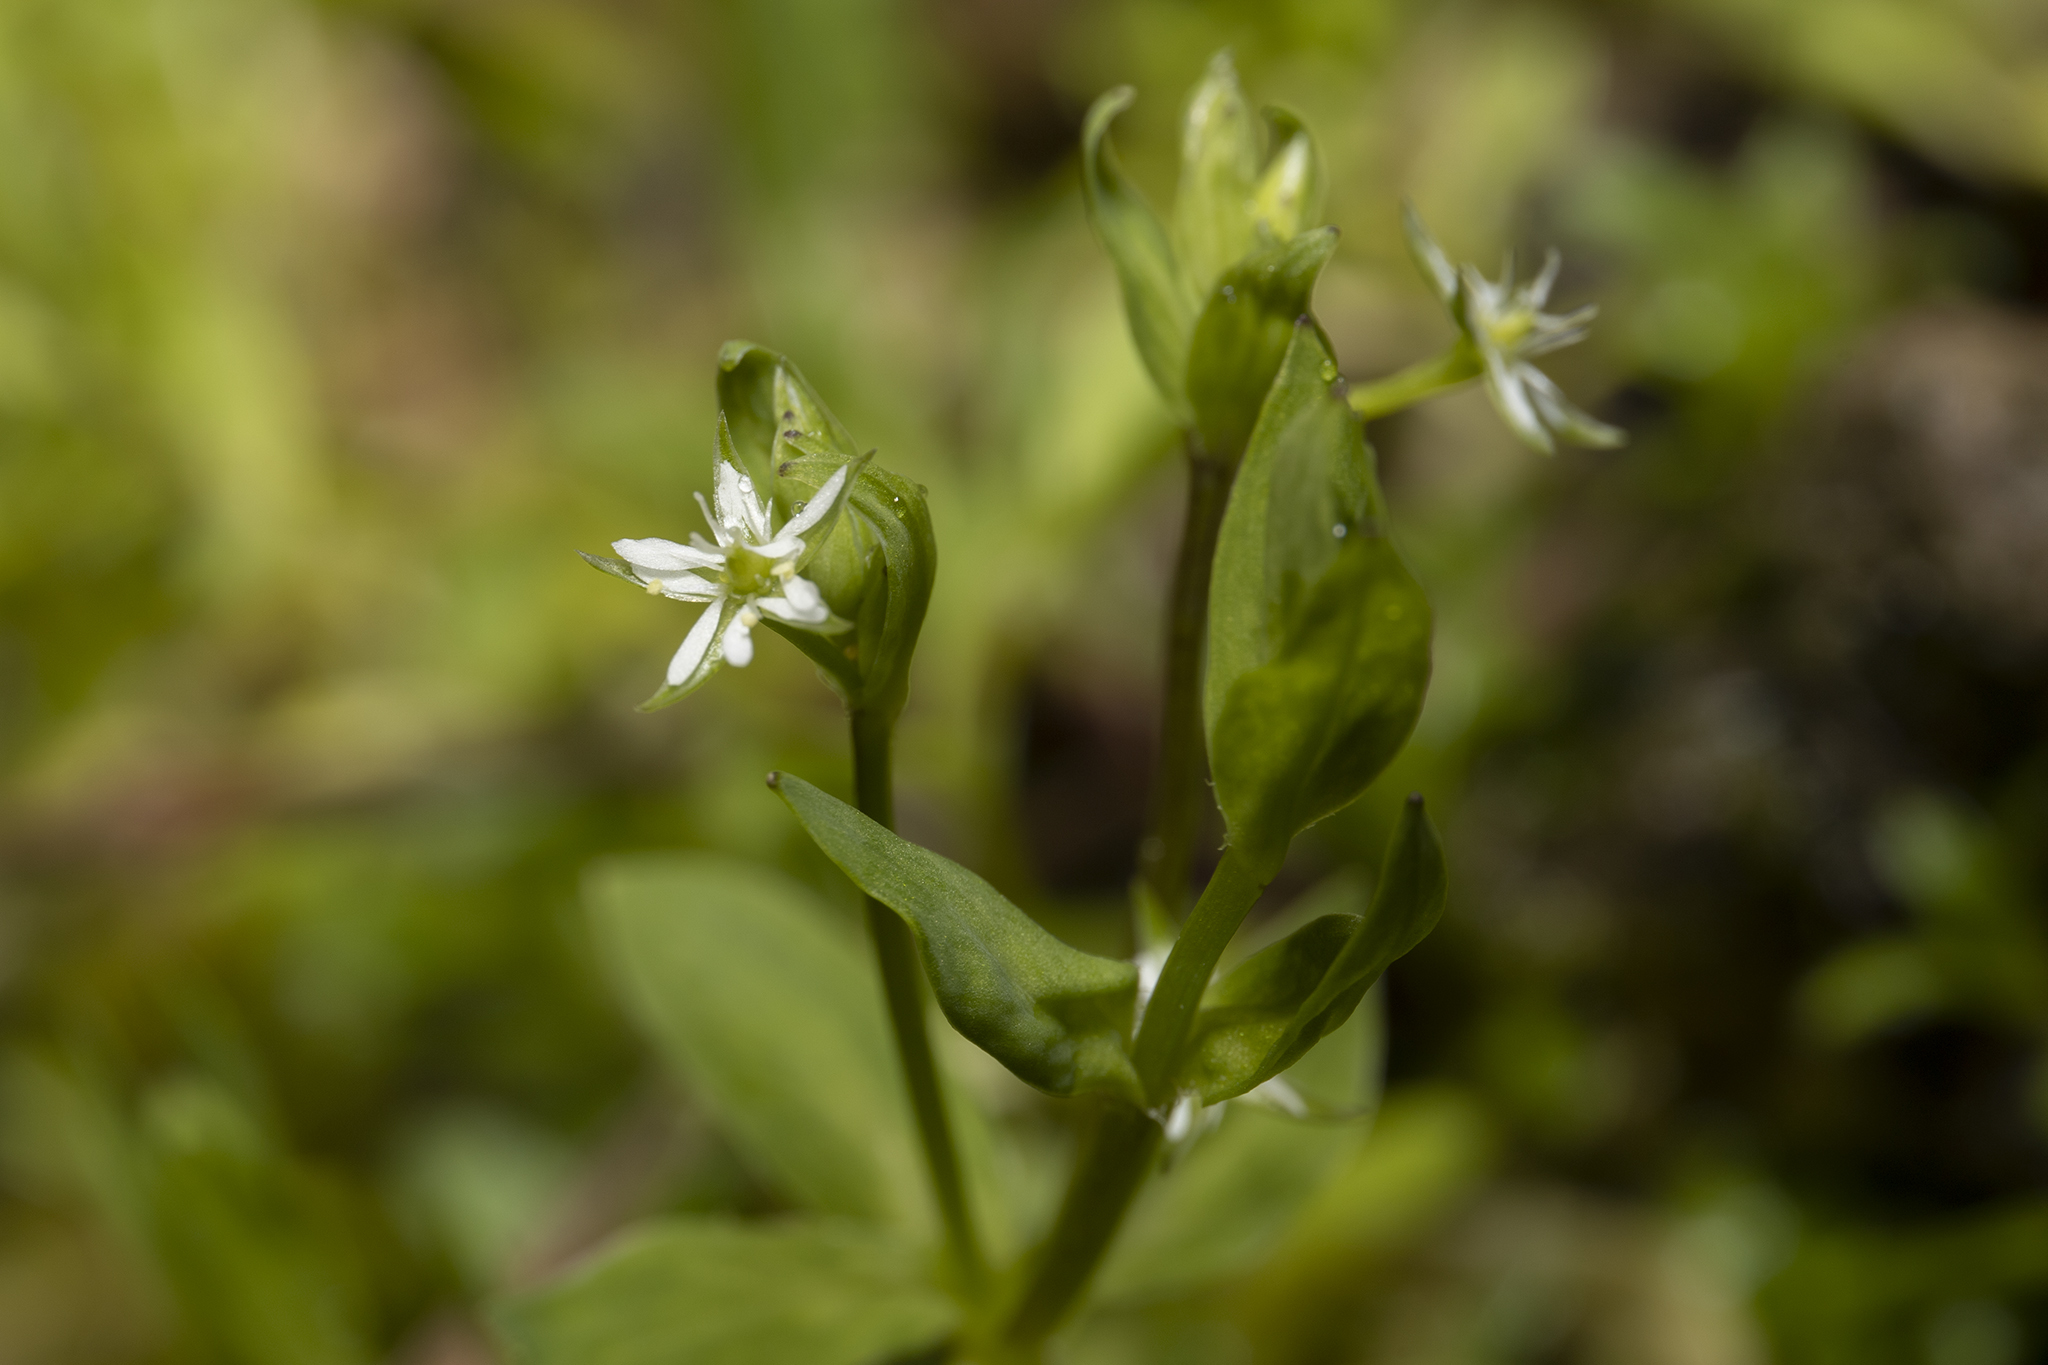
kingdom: Plantae
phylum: Tracheophyta
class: Magnoliopsida
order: Caryophyllales
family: Caryophyllaceae
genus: Stellaria
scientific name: Stellaria alsine
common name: Bog stitchwort
